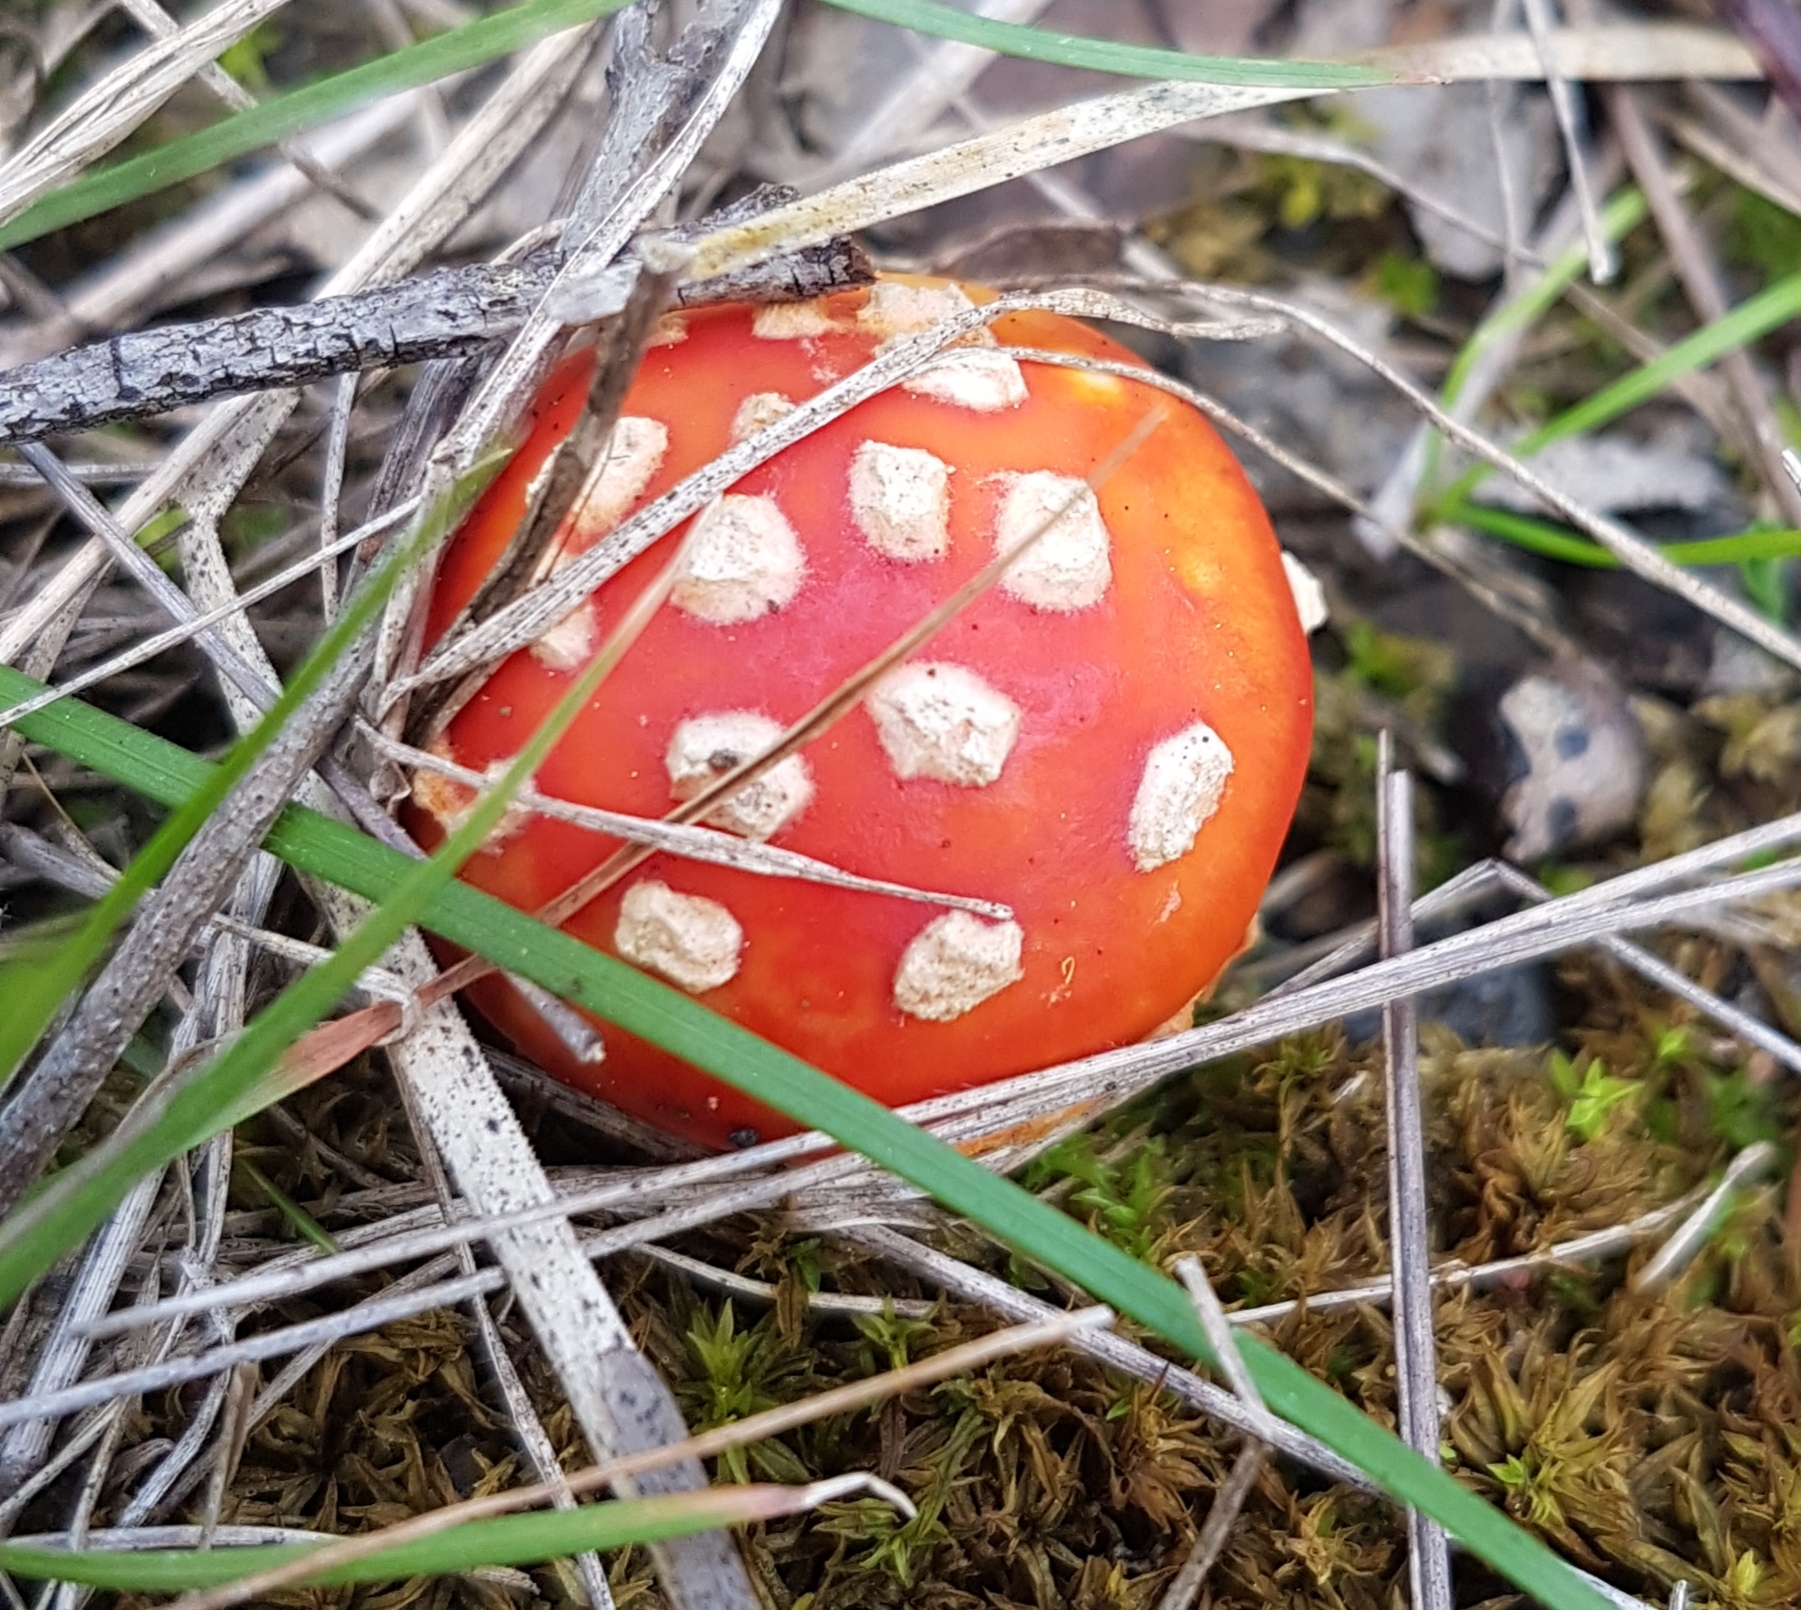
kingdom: Fungi
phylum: Basidiomycota
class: Agaricomycetes
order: Agaricales
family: Amanitaceae
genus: Amanita
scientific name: Amanita muscaria
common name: Fly agaric
